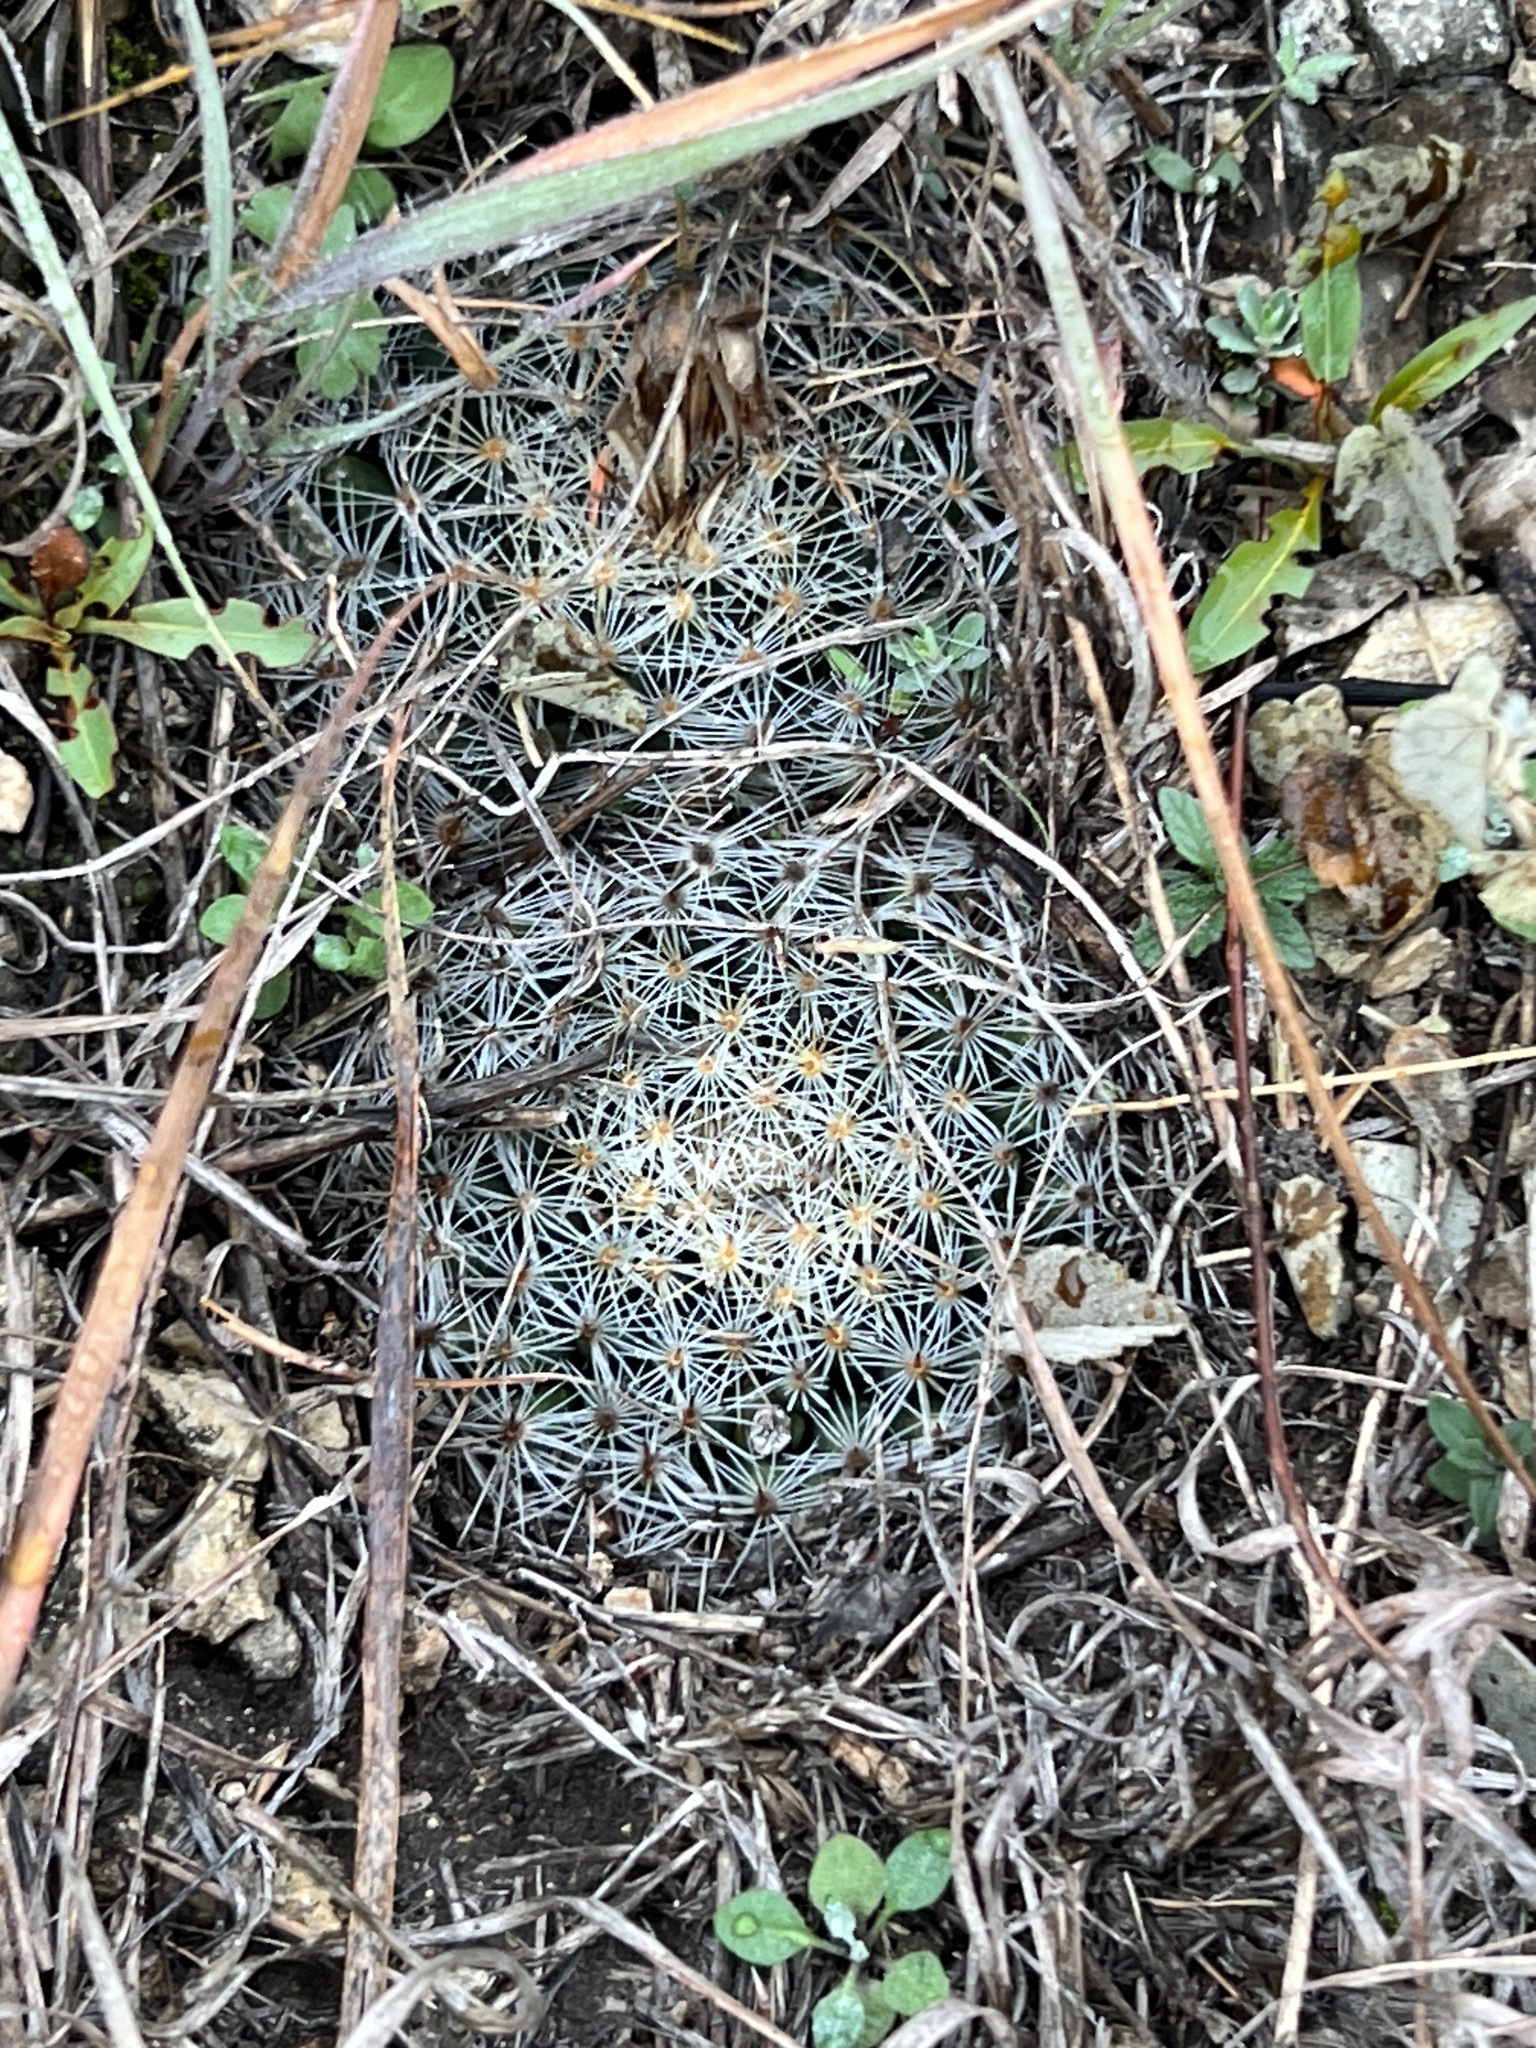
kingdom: Plantae
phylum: Tracheophyta
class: Magnoliopsida
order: Caryophyllales
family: Cactaceae
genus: Mammillaria
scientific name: Mammillaria heyderi
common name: Little nipple cactus
